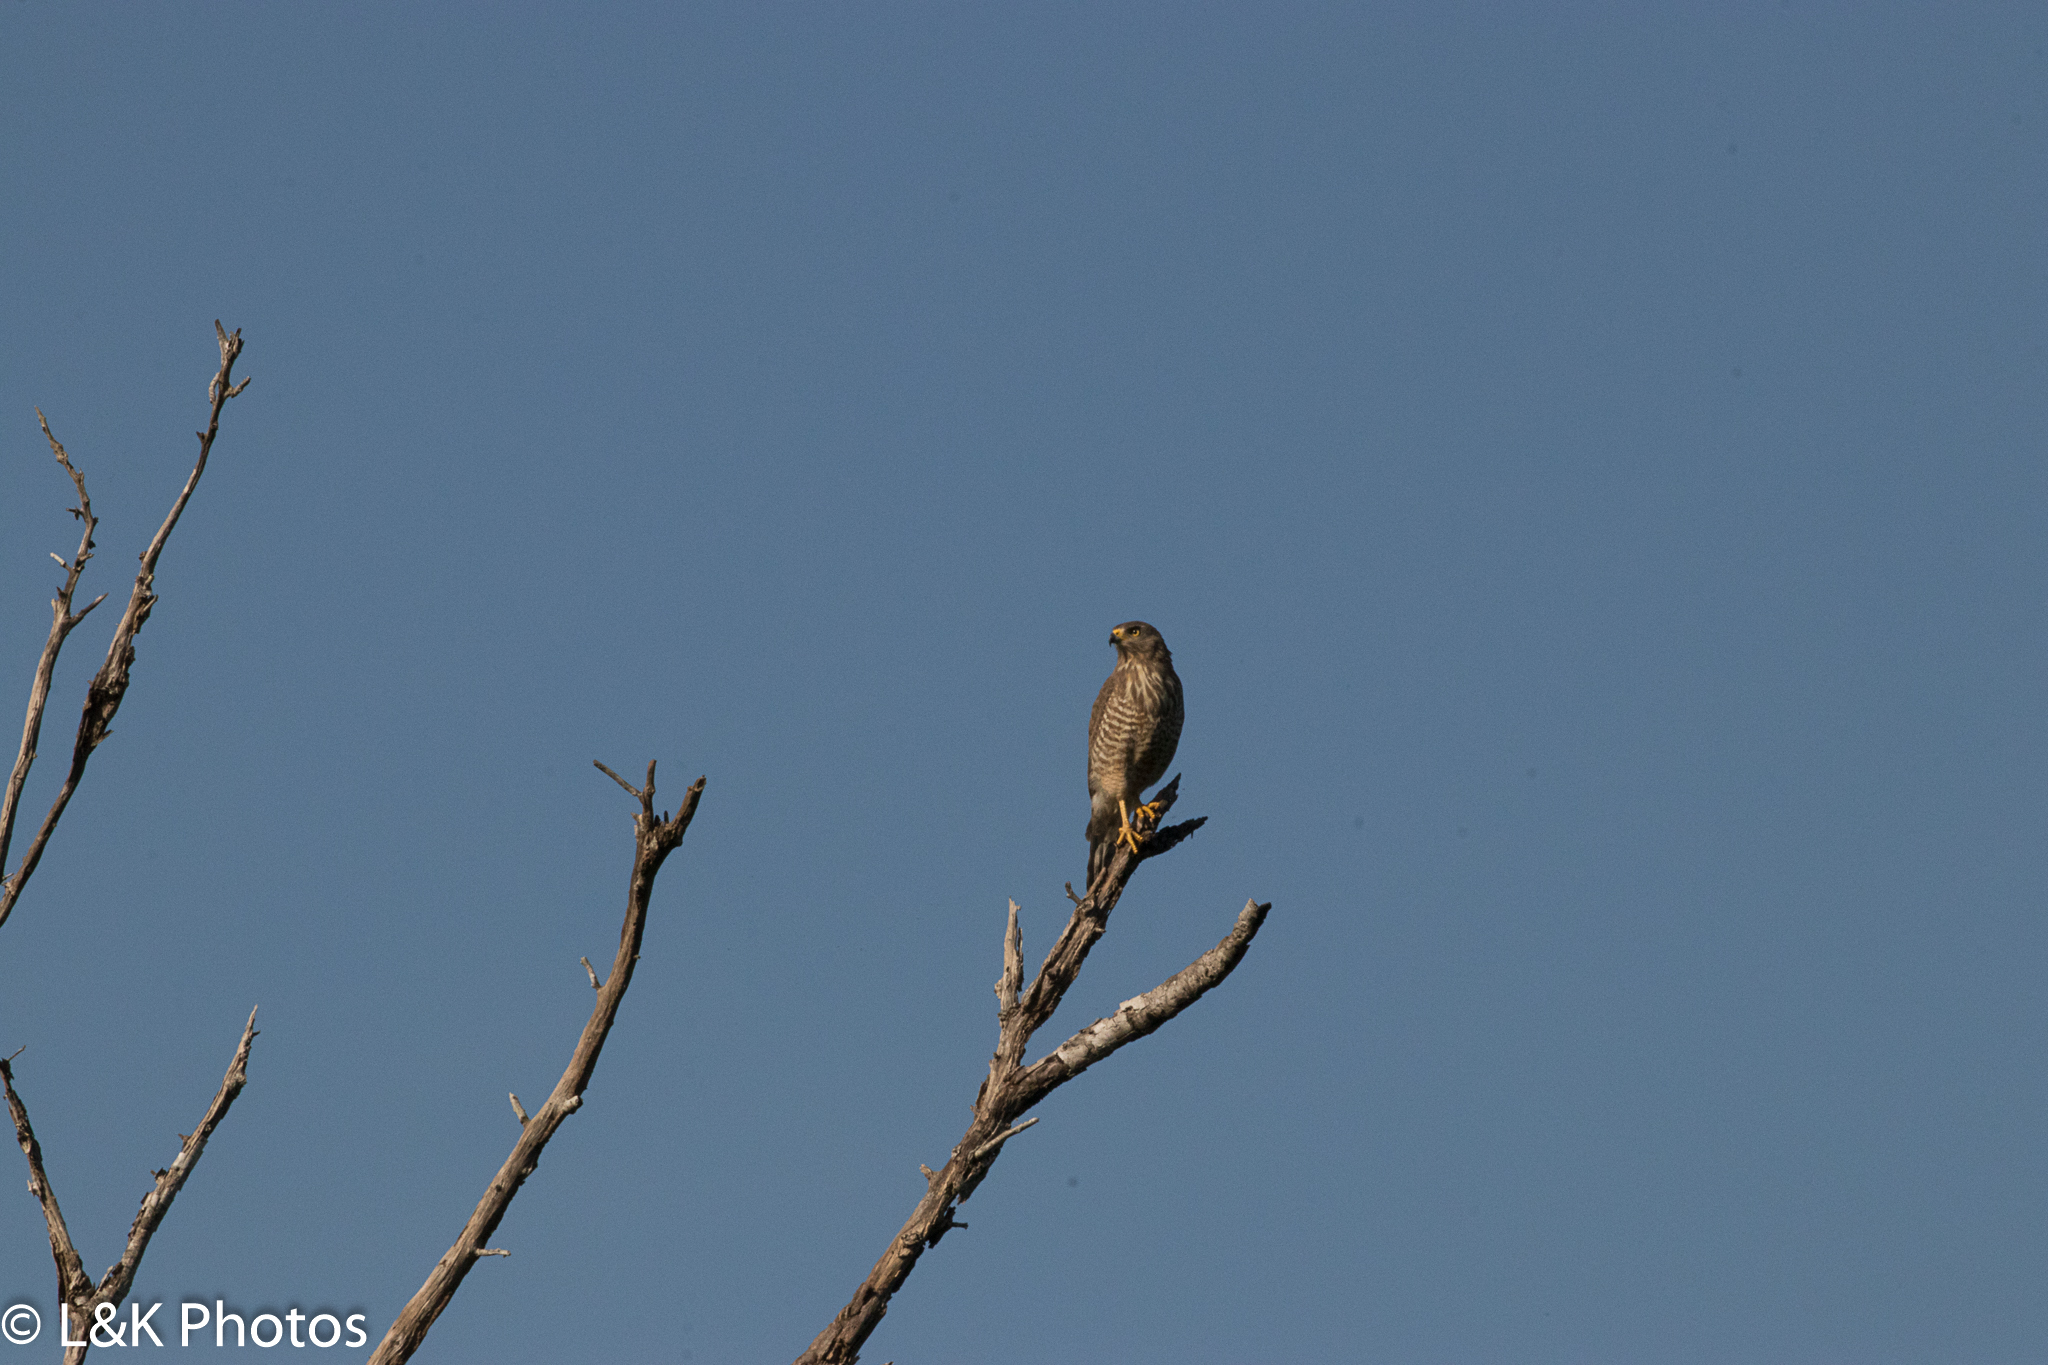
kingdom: Animalia
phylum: Chordata
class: Aves
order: Accipitriformes
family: Accipitridae
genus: Rupornis
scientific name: Rupornis magnirostris
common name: Roadside hawk
